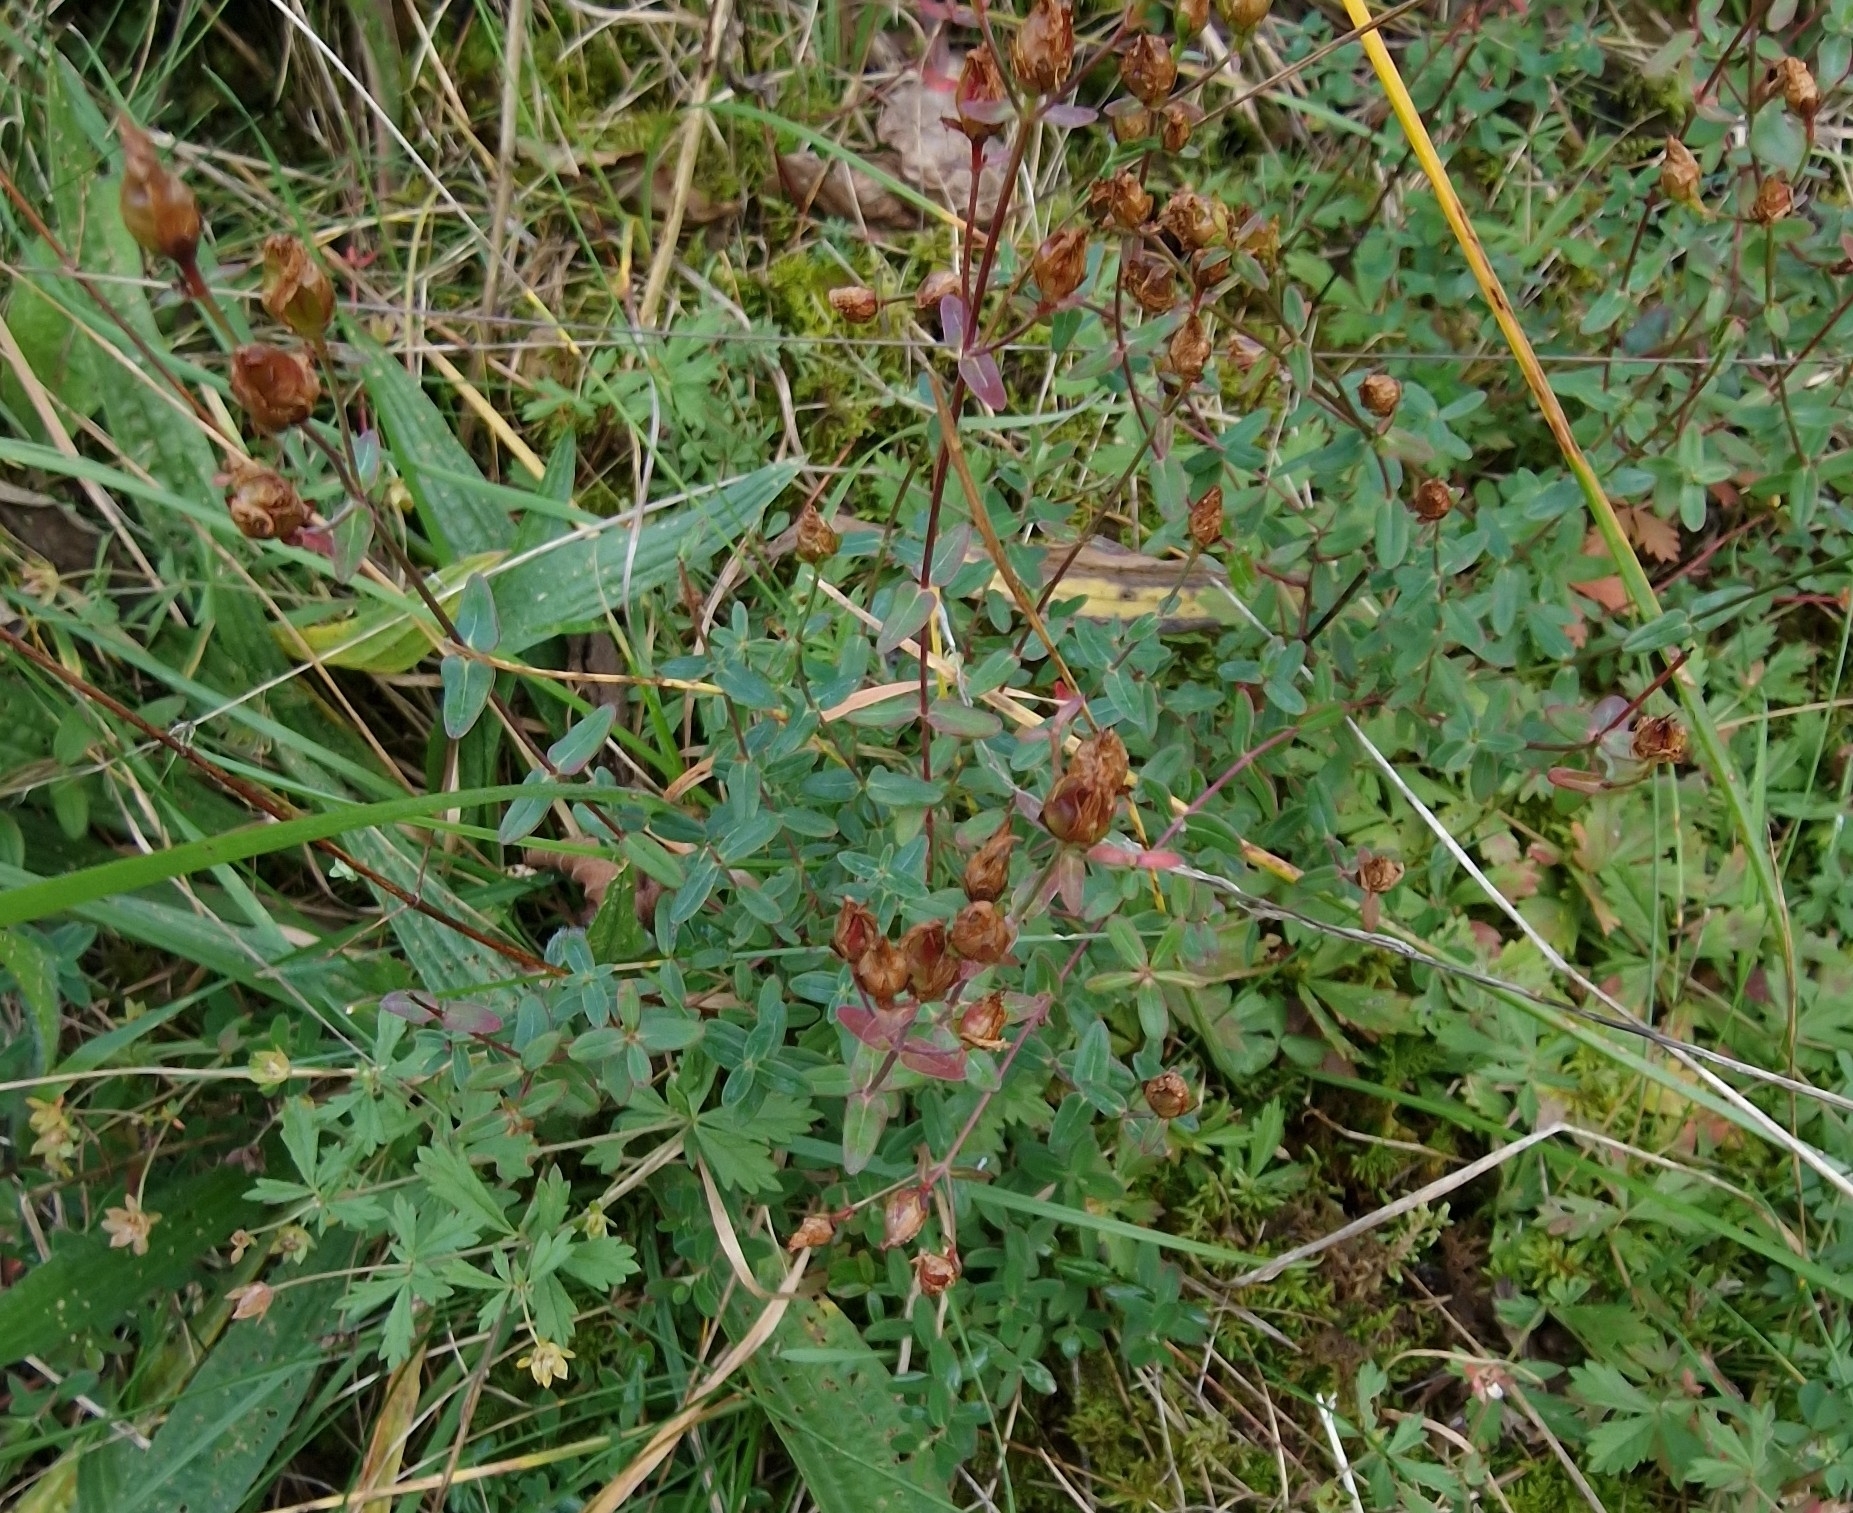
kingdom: Plantae
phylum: Tracheophyta
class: Magnoliopsida
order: Malpighiales
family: Hypericaceae
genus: Hypericum
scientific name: Hypericum pulchrum
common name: Slender st. john's-wort
